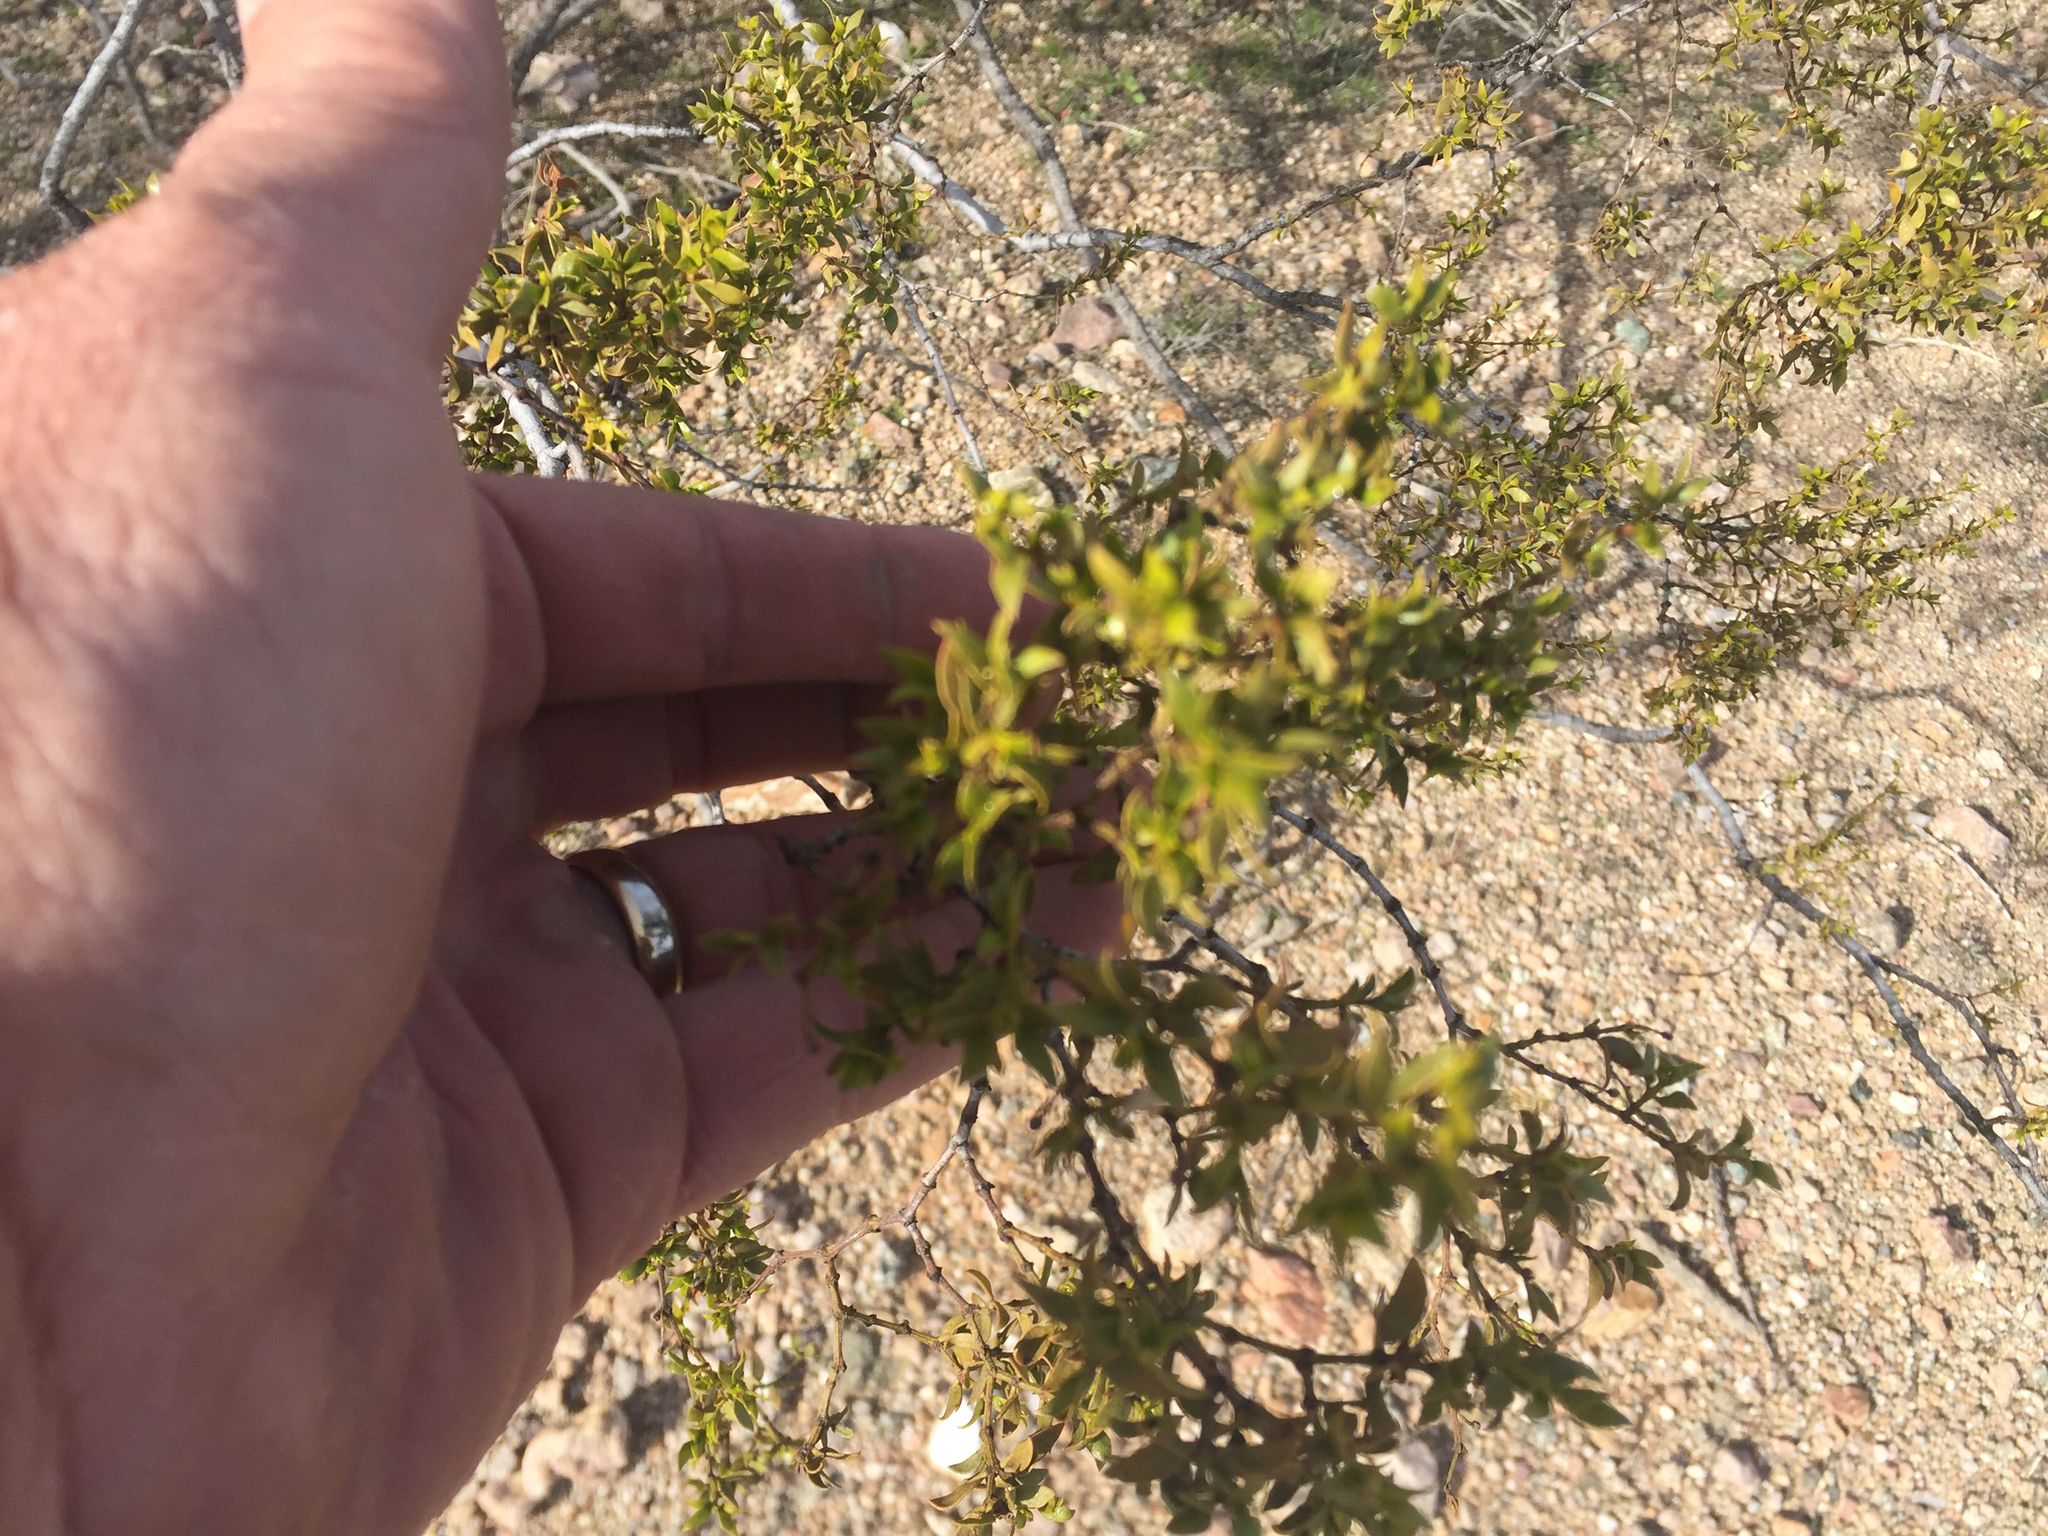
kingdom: Plantae
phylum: Tracheophyta
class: Magnoliopsida
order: Zygophyllales
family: Zygophyllaceae
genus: Larrea
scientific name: Larrea tridentata
